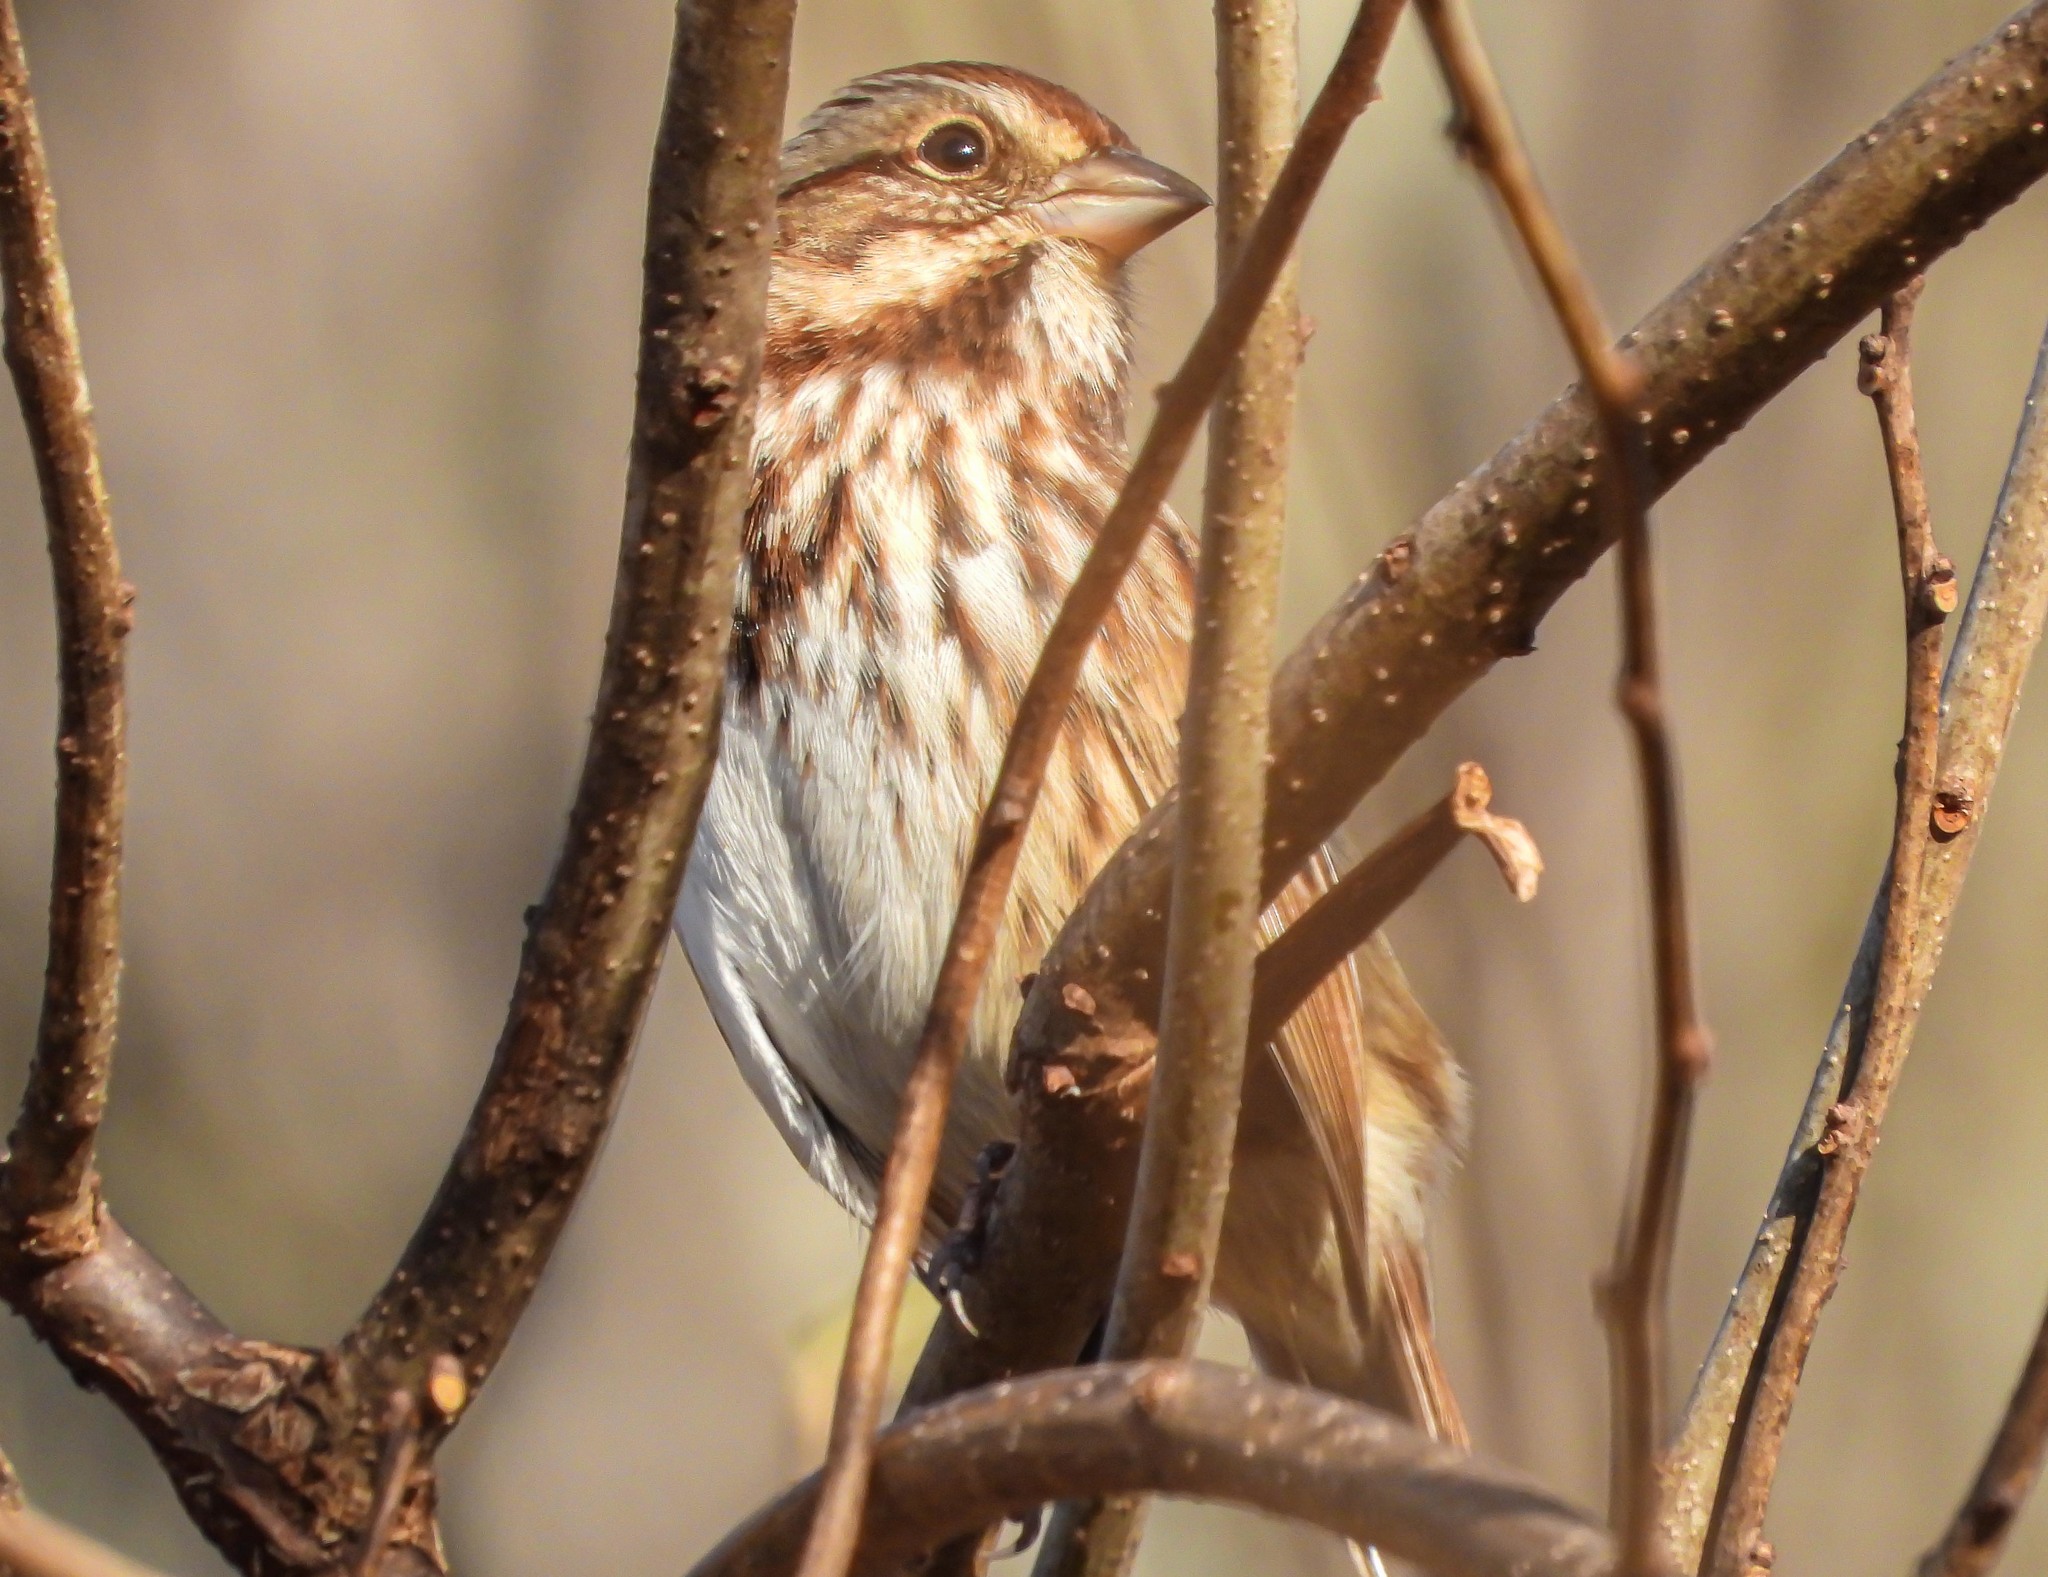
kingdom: Animalia
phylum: Chordata
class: Aves
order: Passeriformes
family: Passerellidae
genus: Melospiza
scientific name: Melospiza melodia
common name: Song sparrow
